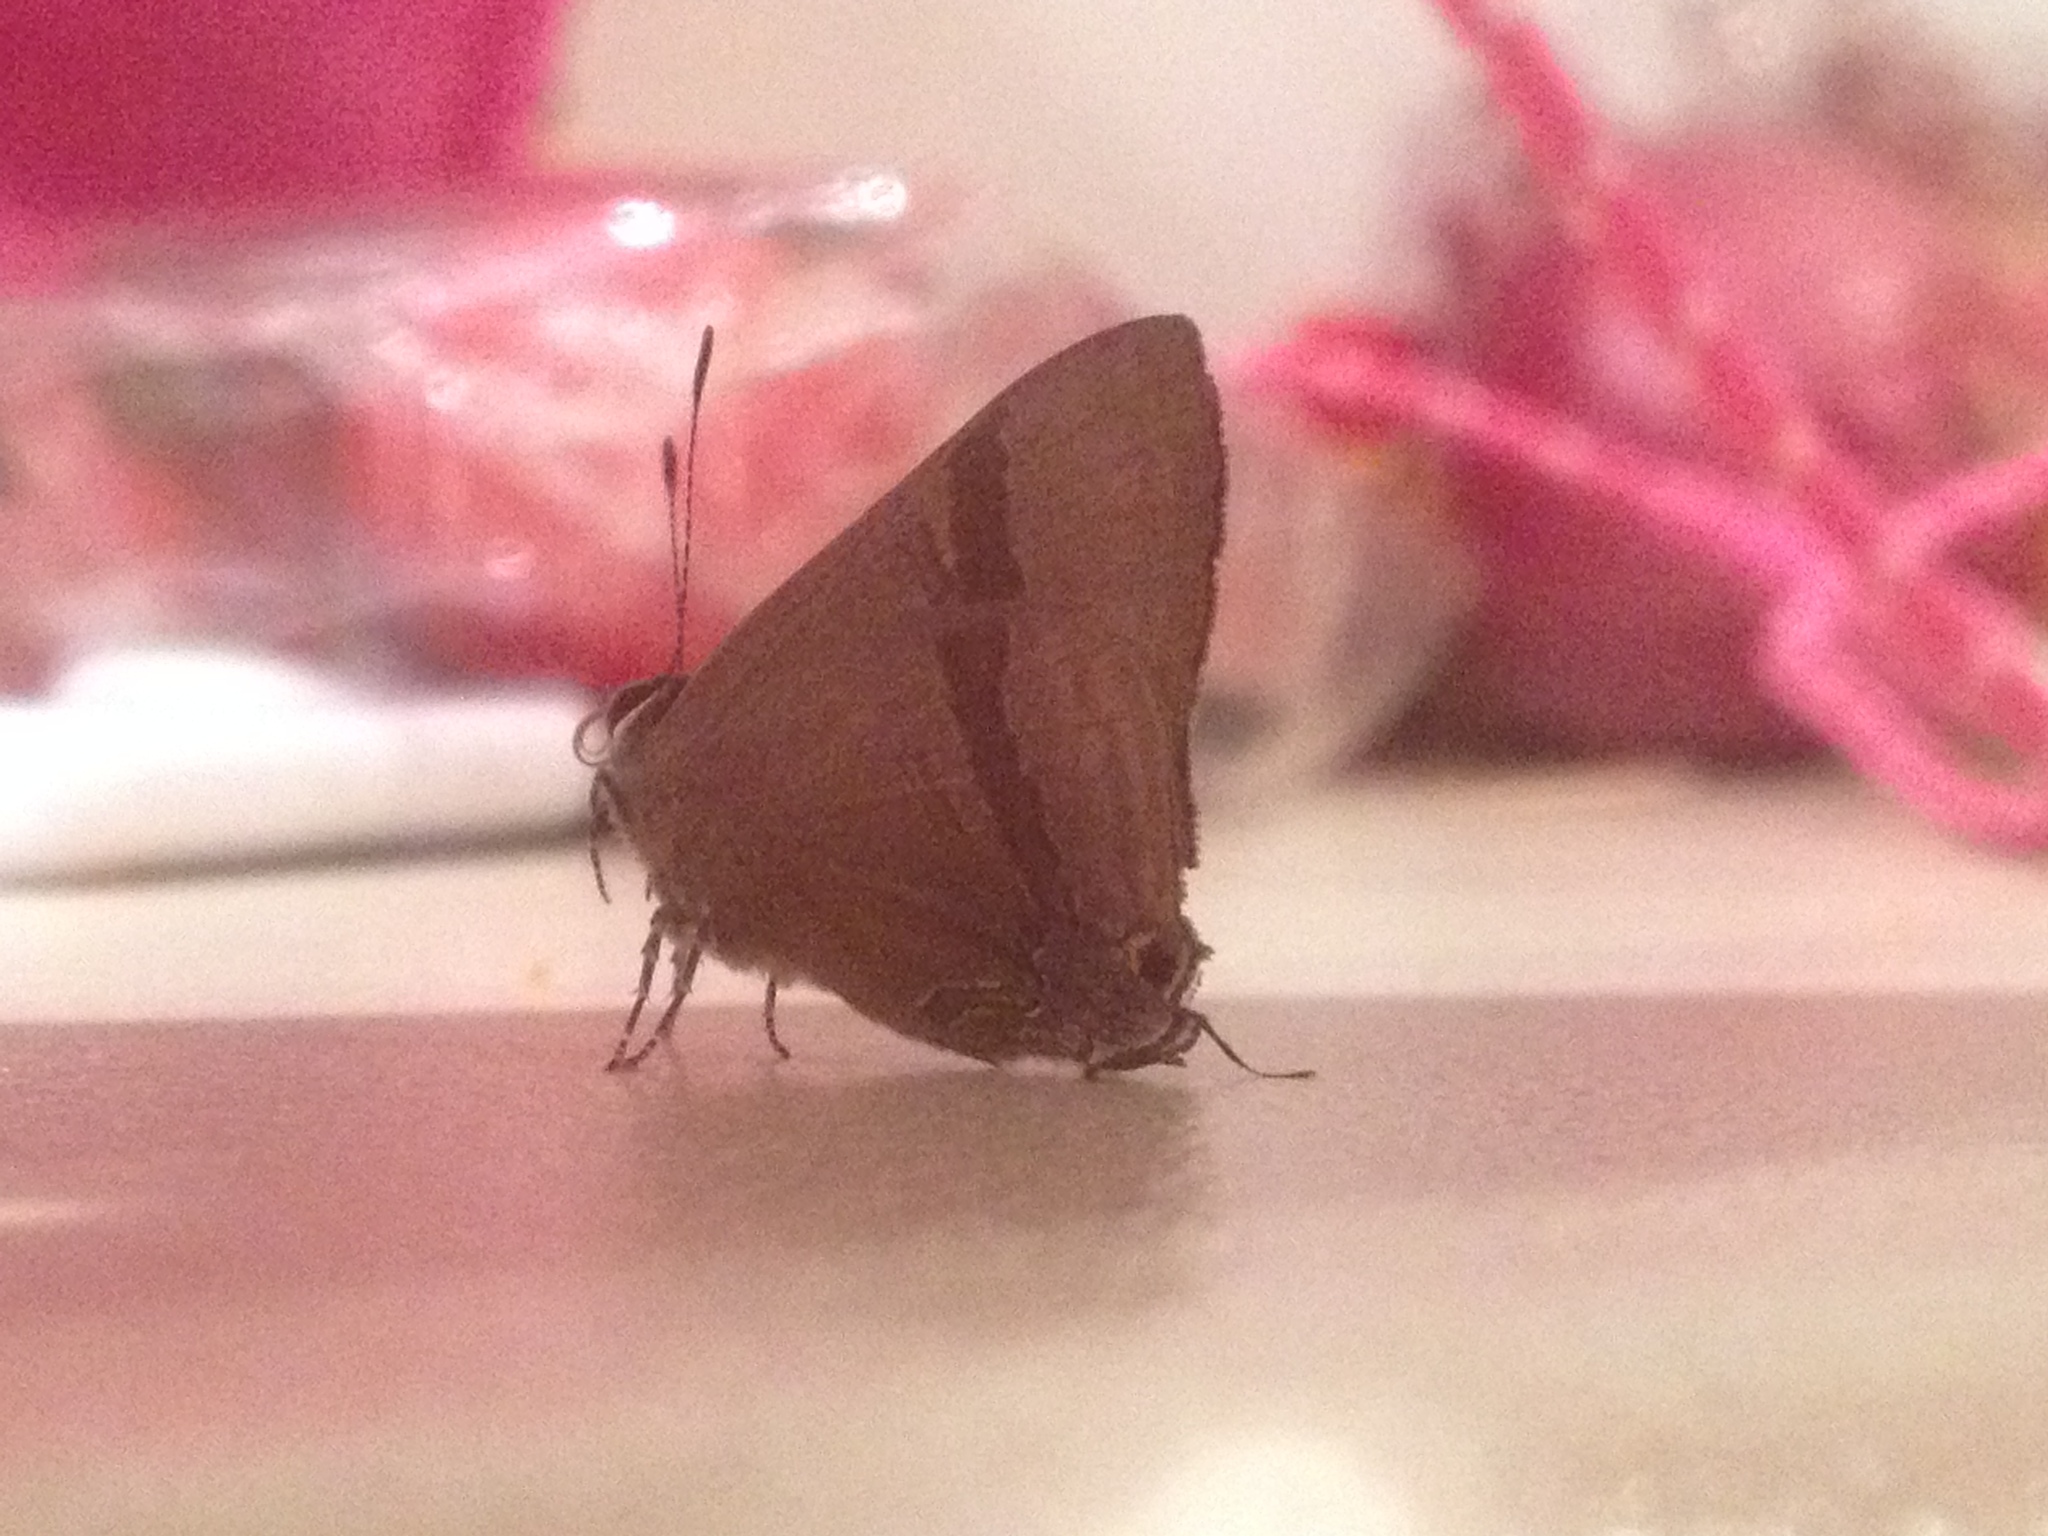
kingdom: Animalia
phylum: Arthropoda
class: Insecta
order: Lepidoptera
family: Lycaenidae
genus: Rapala
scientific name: Rapala varuna
